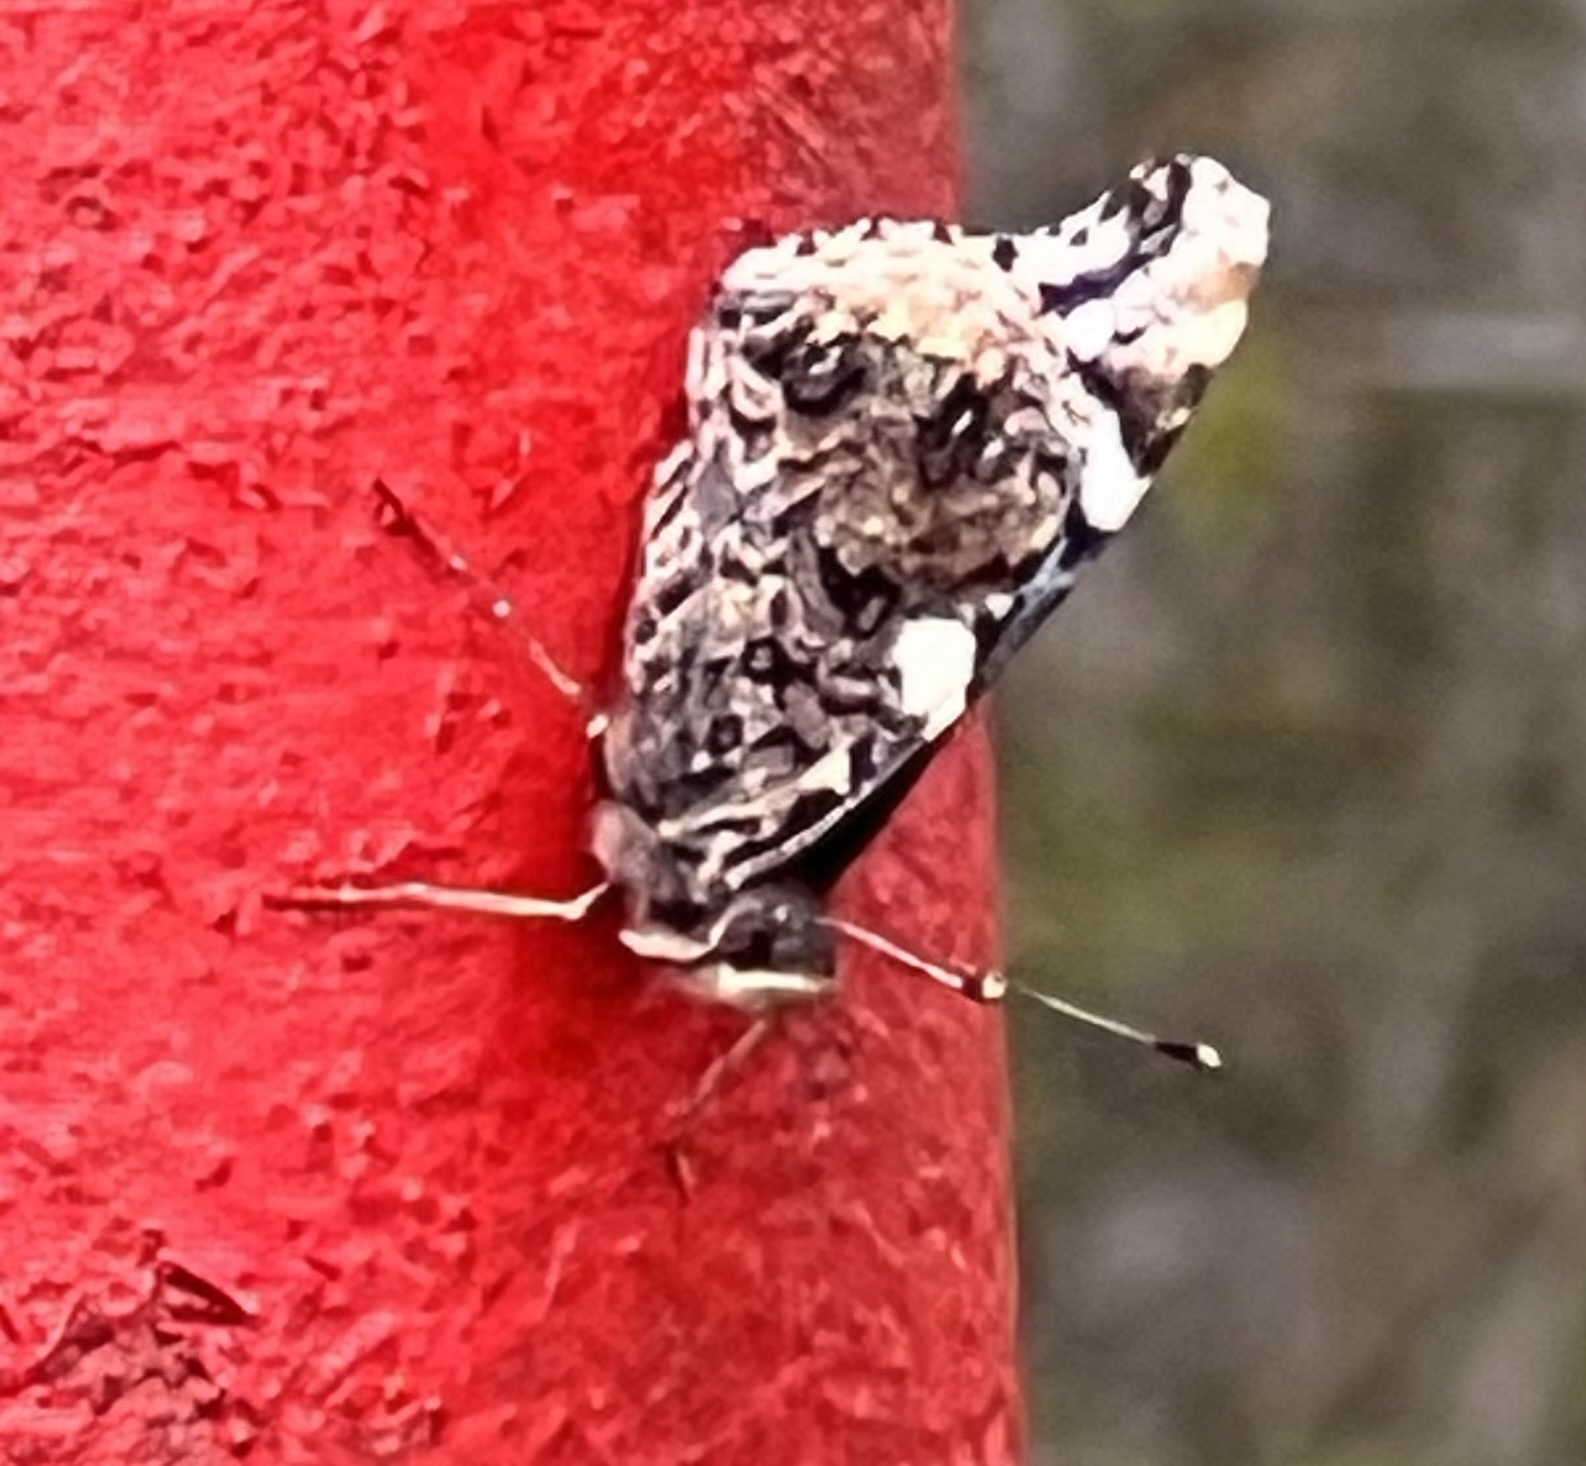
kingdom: Animalia
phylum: Arthropoda
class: Insecta
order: Lepidoptera
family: Nymphalidae
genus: Vanessa
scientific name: Vanessa atalanta
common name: Red admiral
